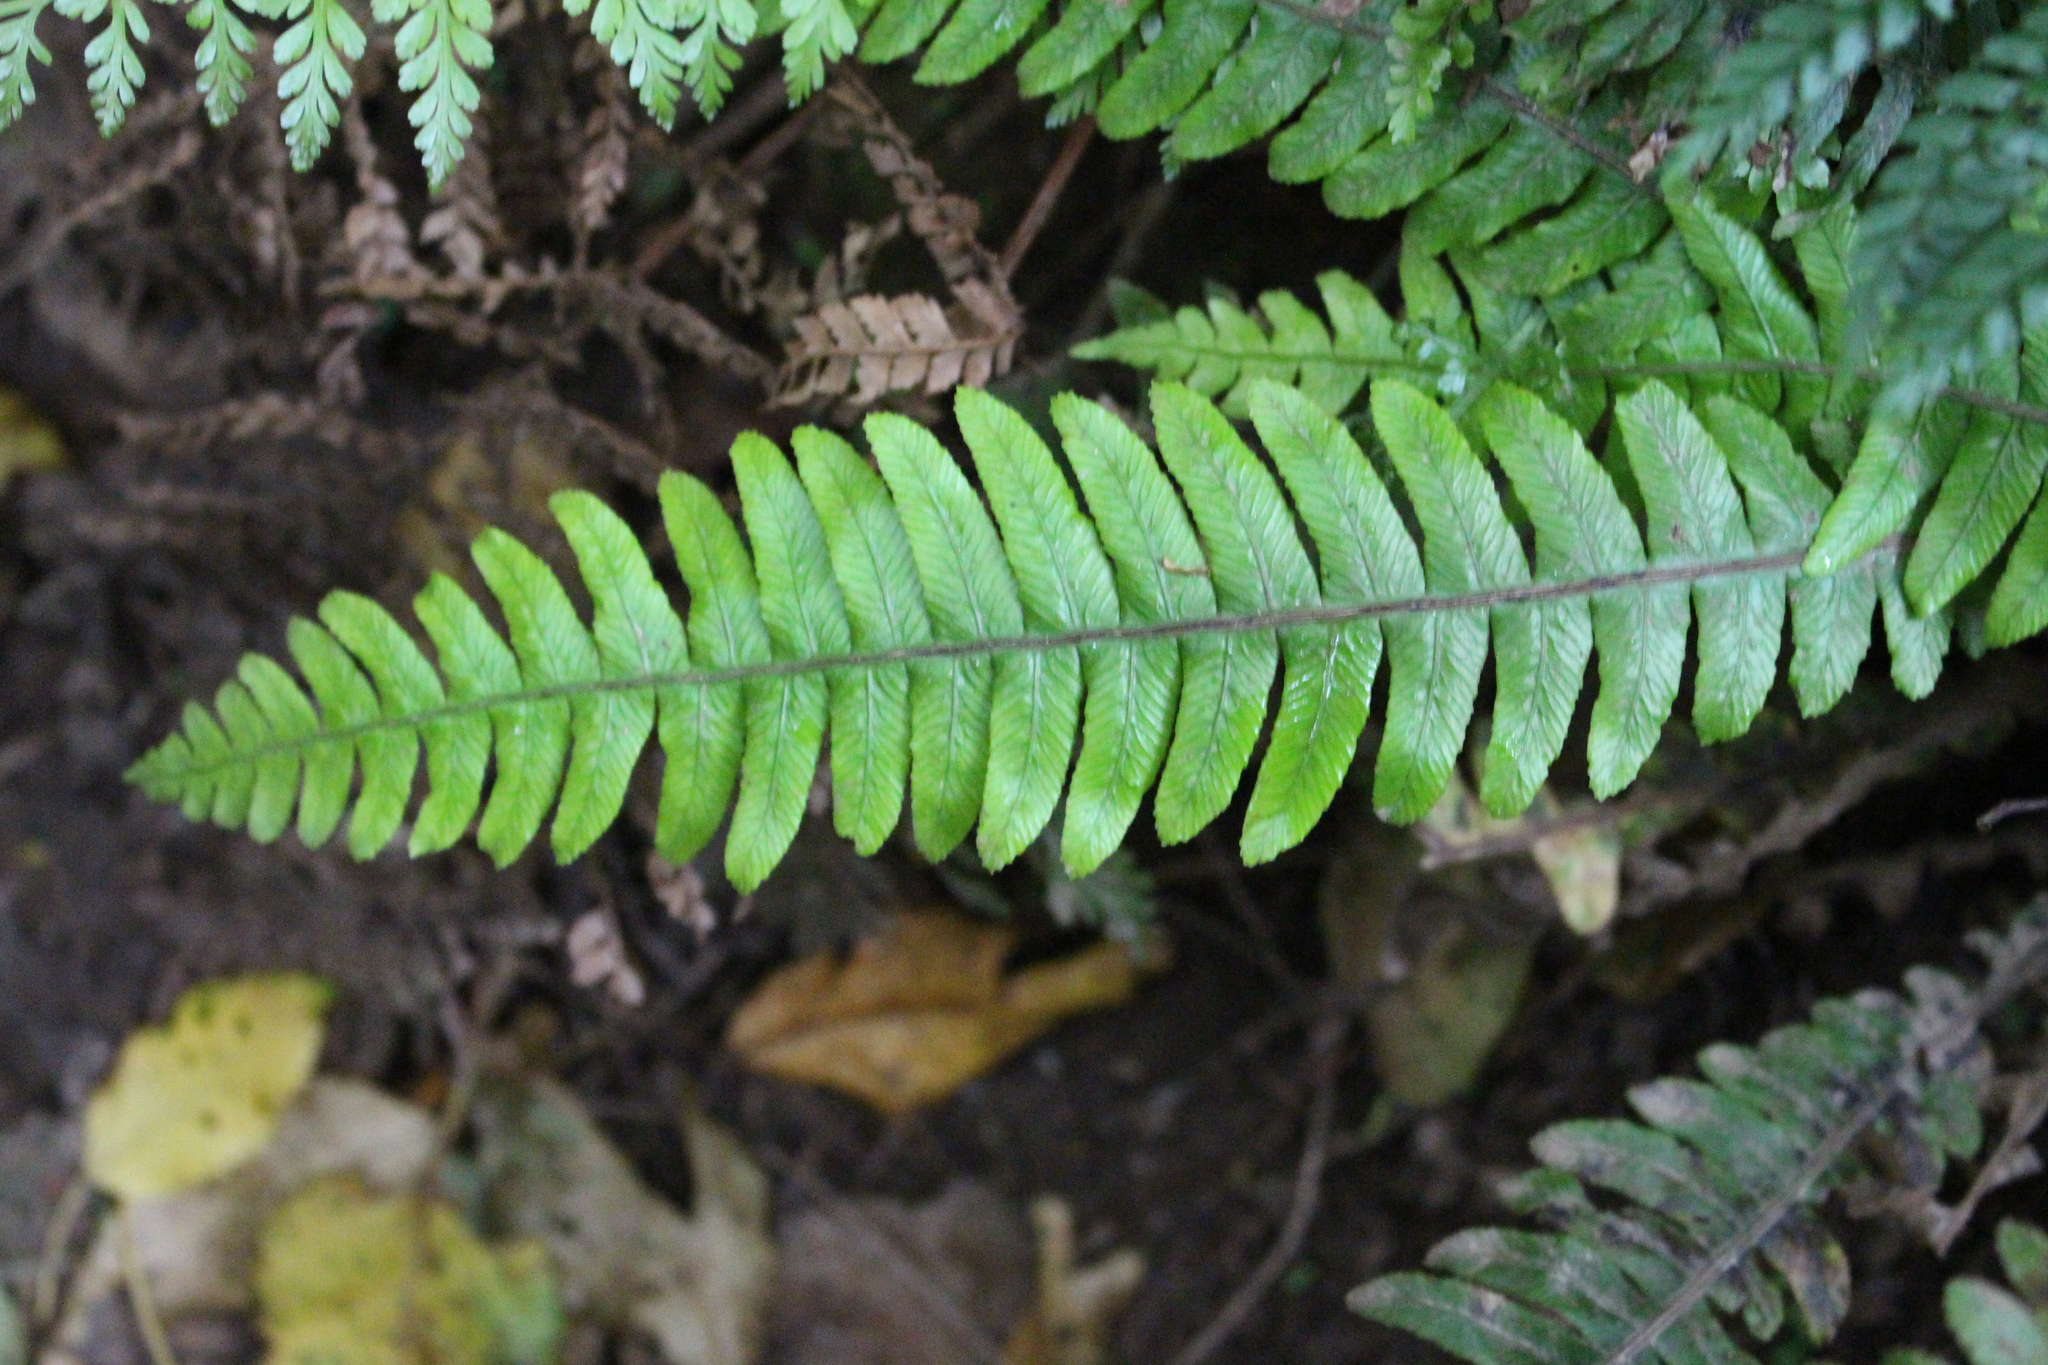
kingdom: Plantae
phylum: Tracheophyta
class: Polypodiopsida
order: Polypodiales
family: Blechnaceae
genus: Austroblechnum
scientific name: Austroblechnum lanceolatum
